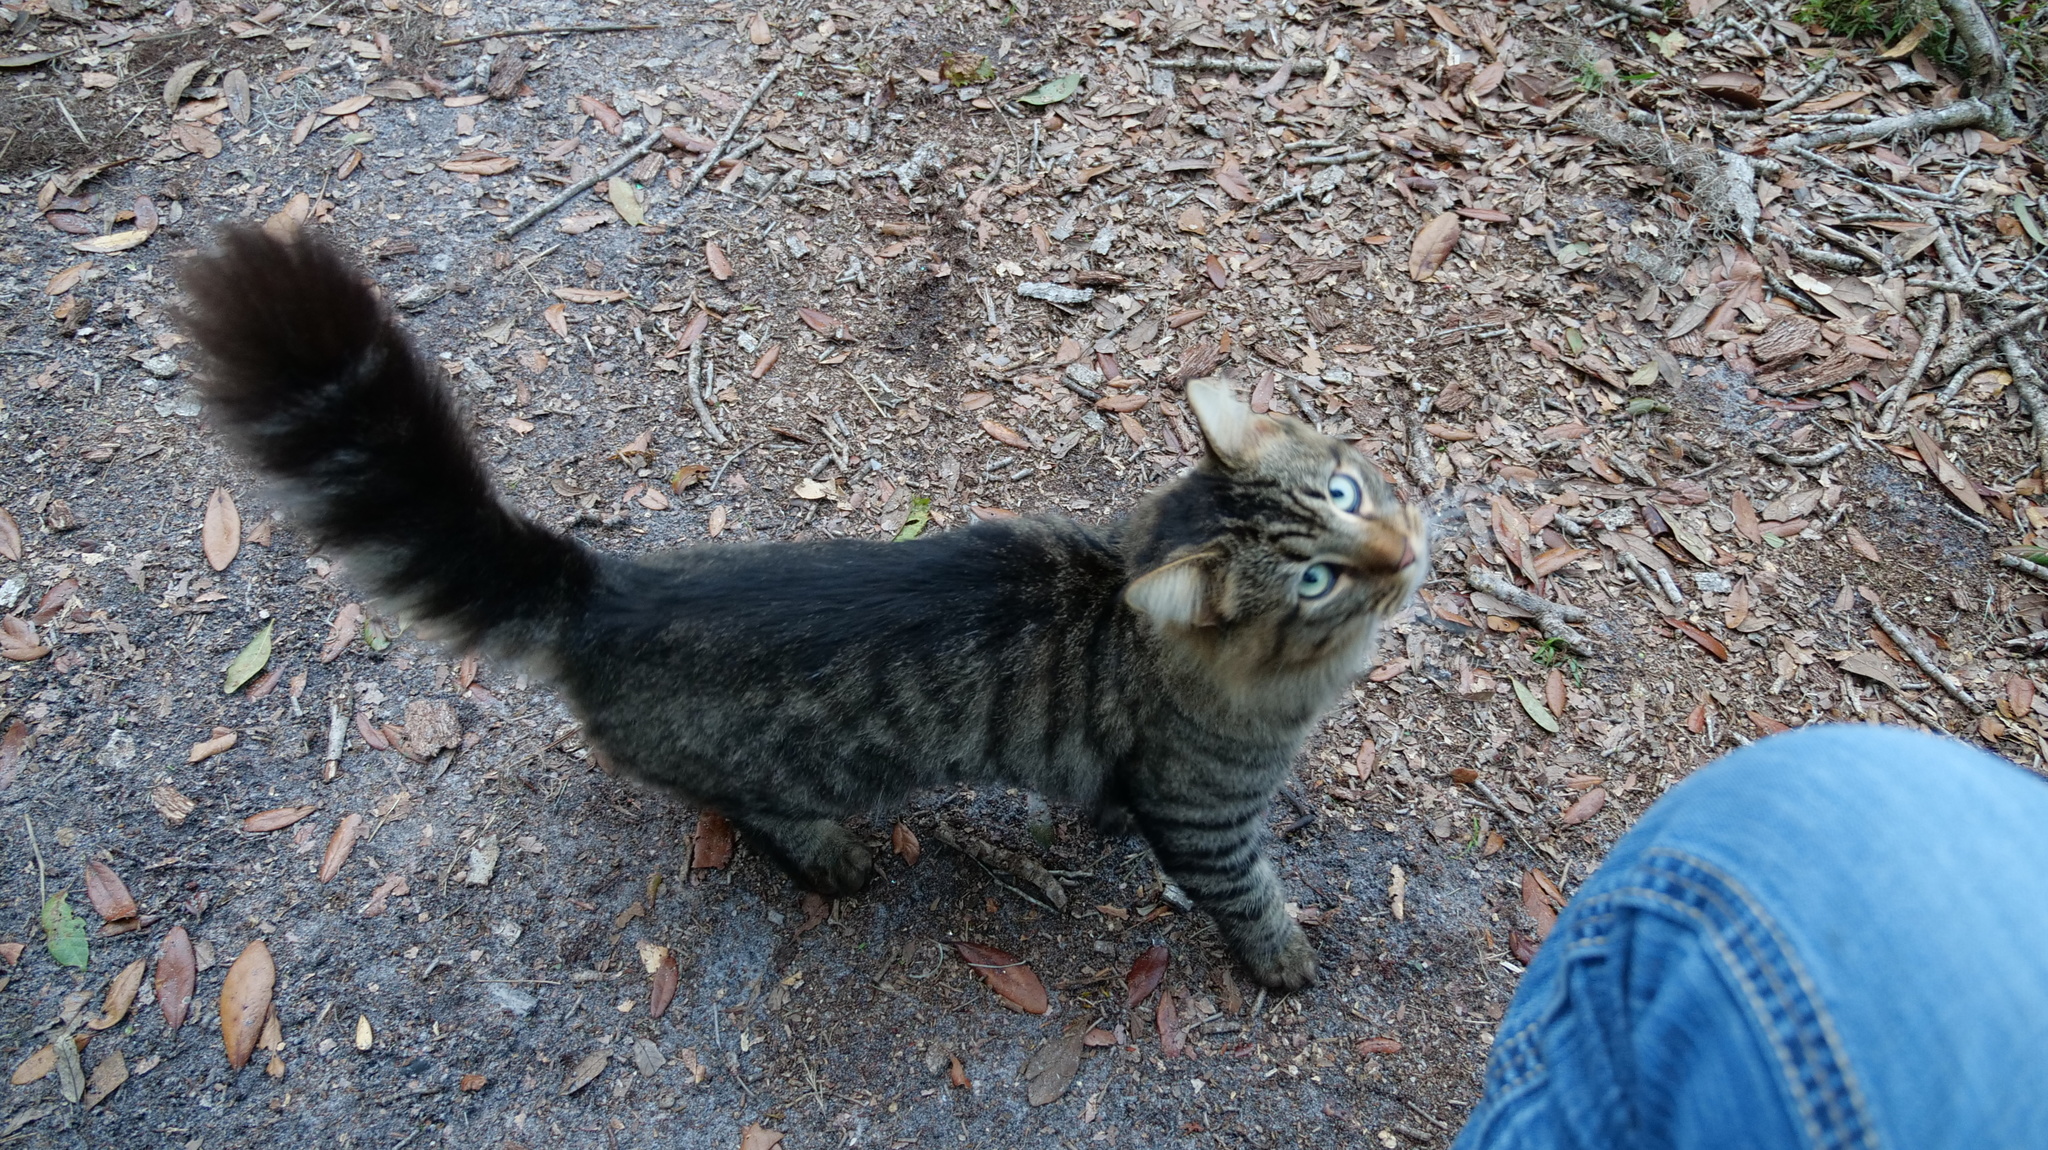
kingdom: Animalia
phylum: Chordata
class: Mammalia
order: Carnivora
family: Felidae
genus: Felis
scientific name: Felis catus
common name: Domestic cat
